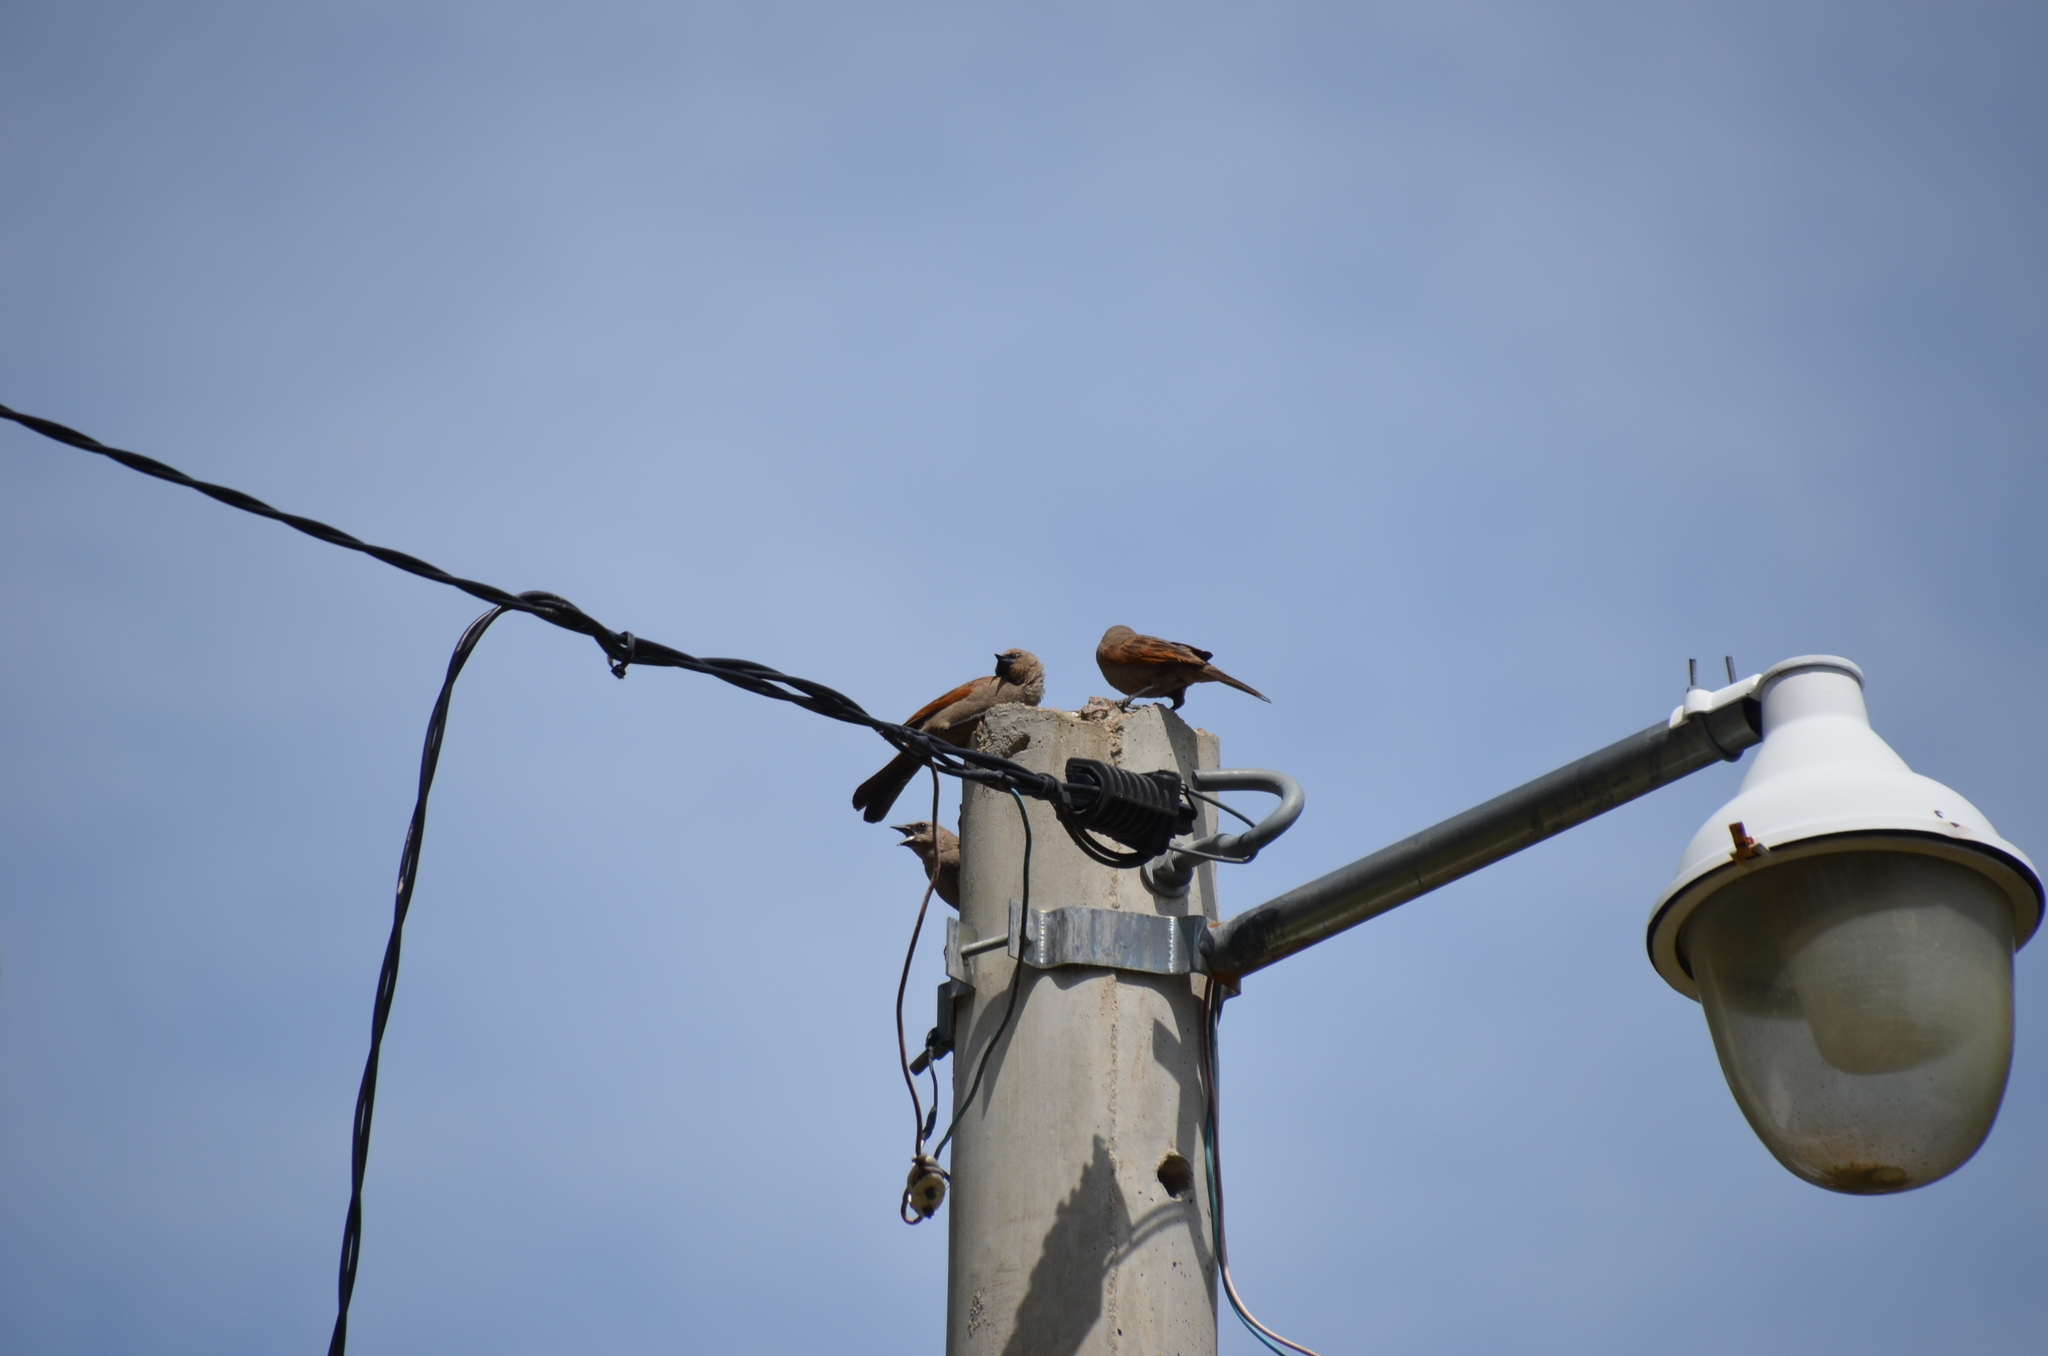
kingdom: Animalia
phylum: Chordata
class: Aves
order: Passeriformes
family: Icteridae
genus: Agelaioides
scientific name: Agelaioides badius
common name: Baywing
